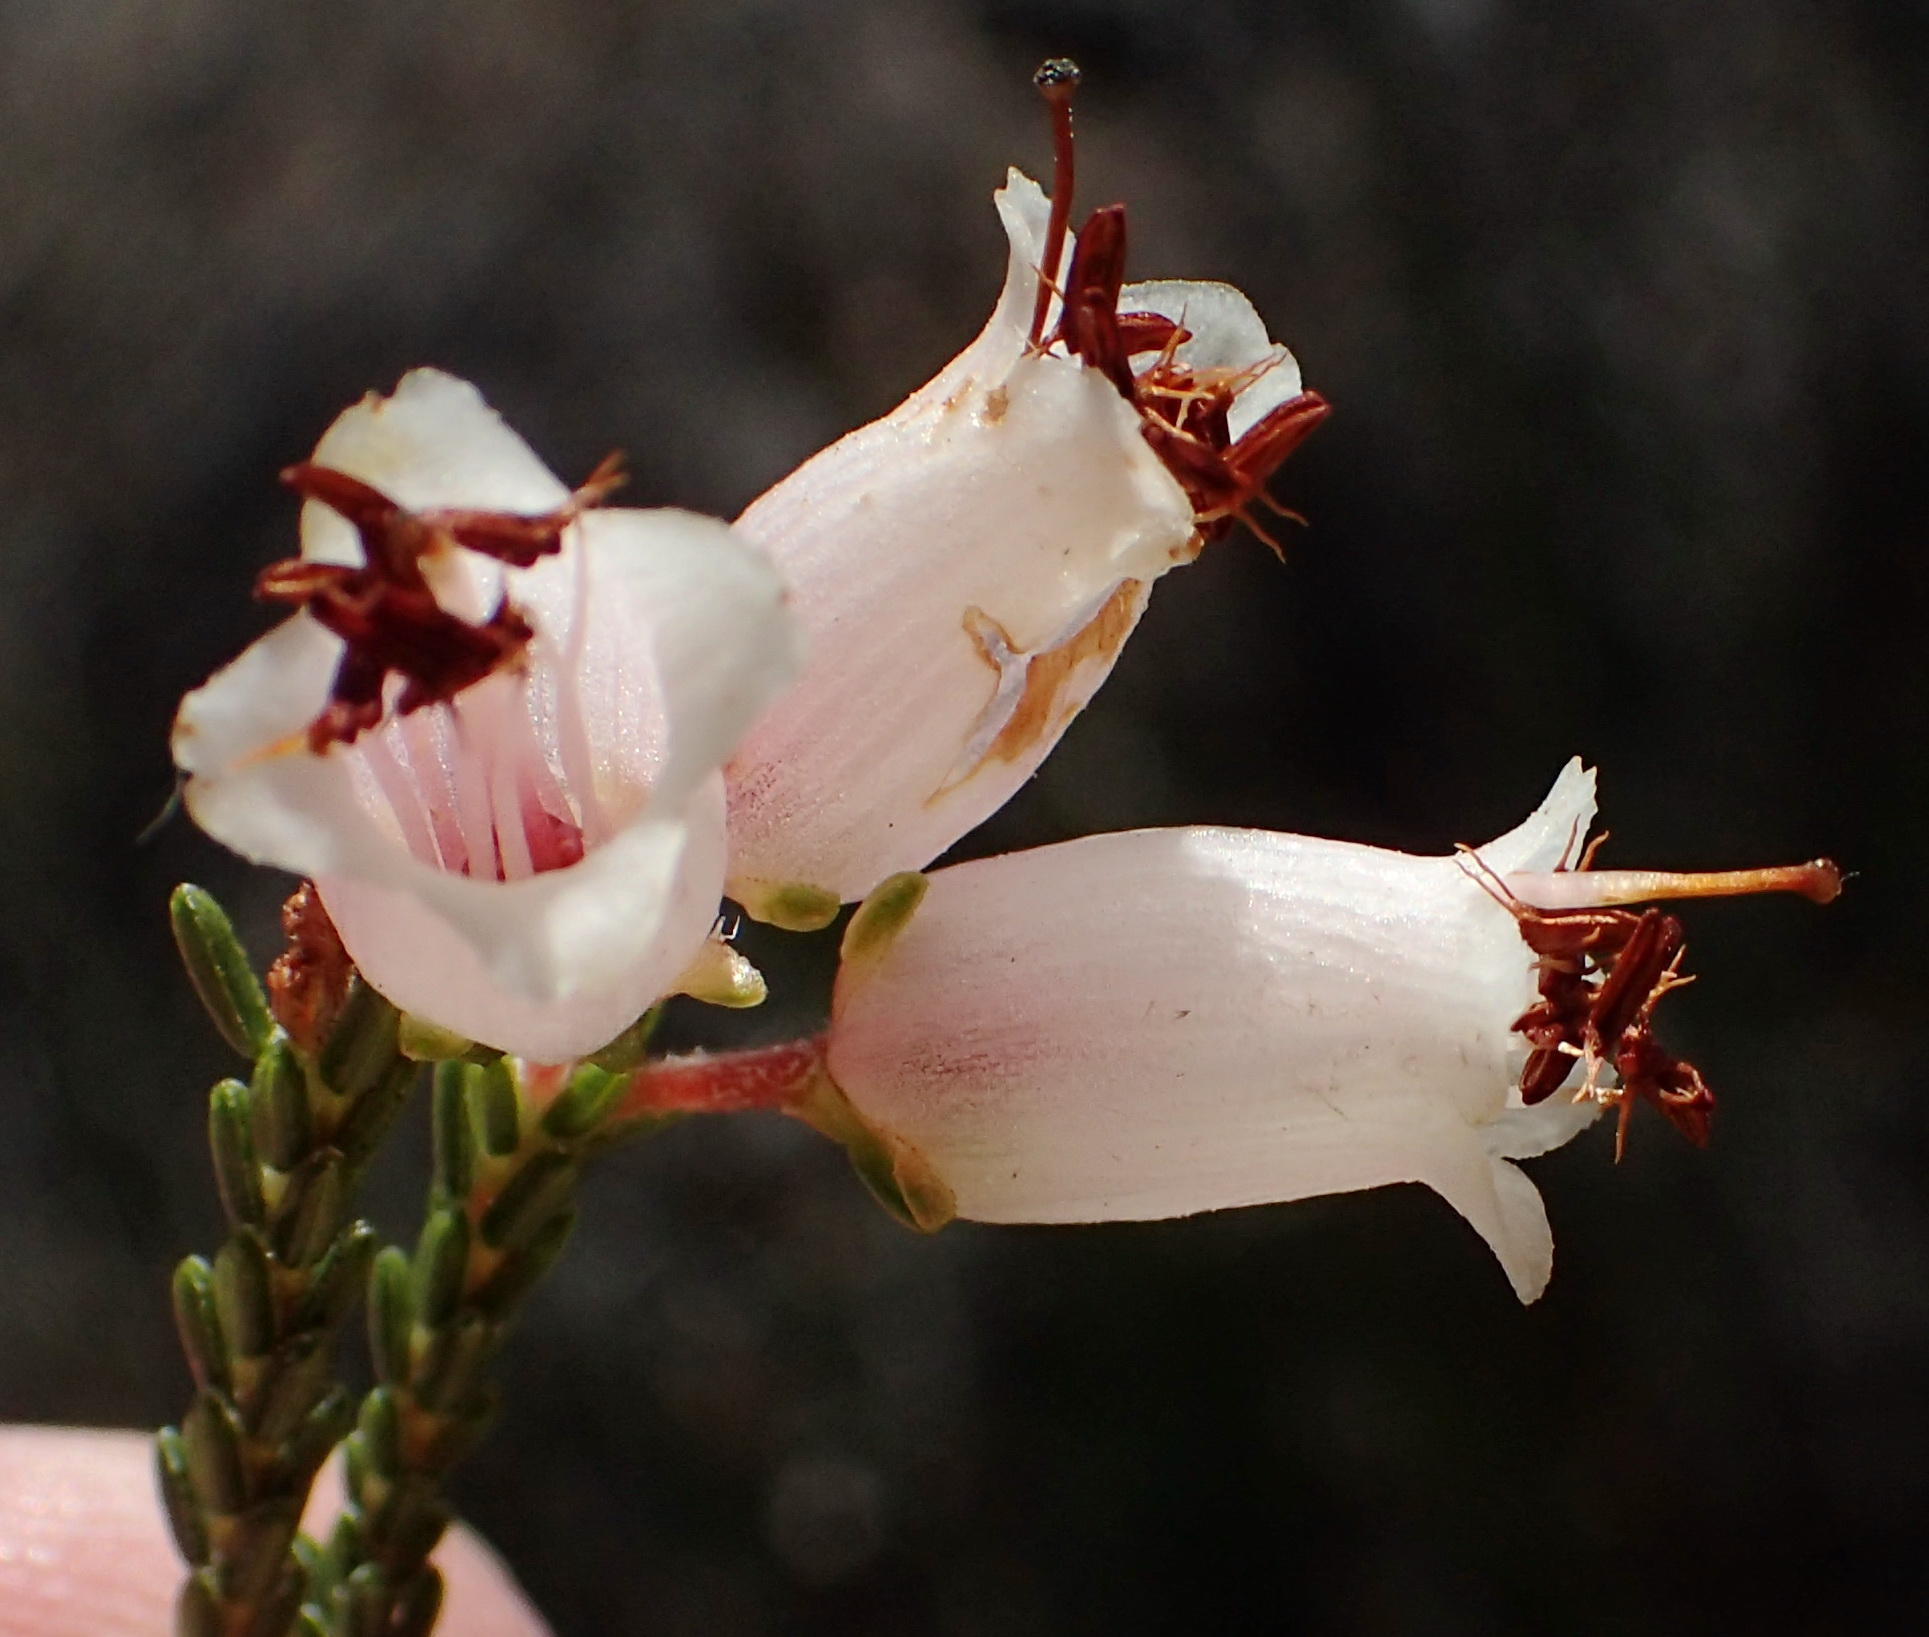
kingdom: Plantae
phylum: Tracheophyta
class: Magnoliopsida
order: Ericales
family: Ericaceae
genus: Erica
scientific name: Erica recta
